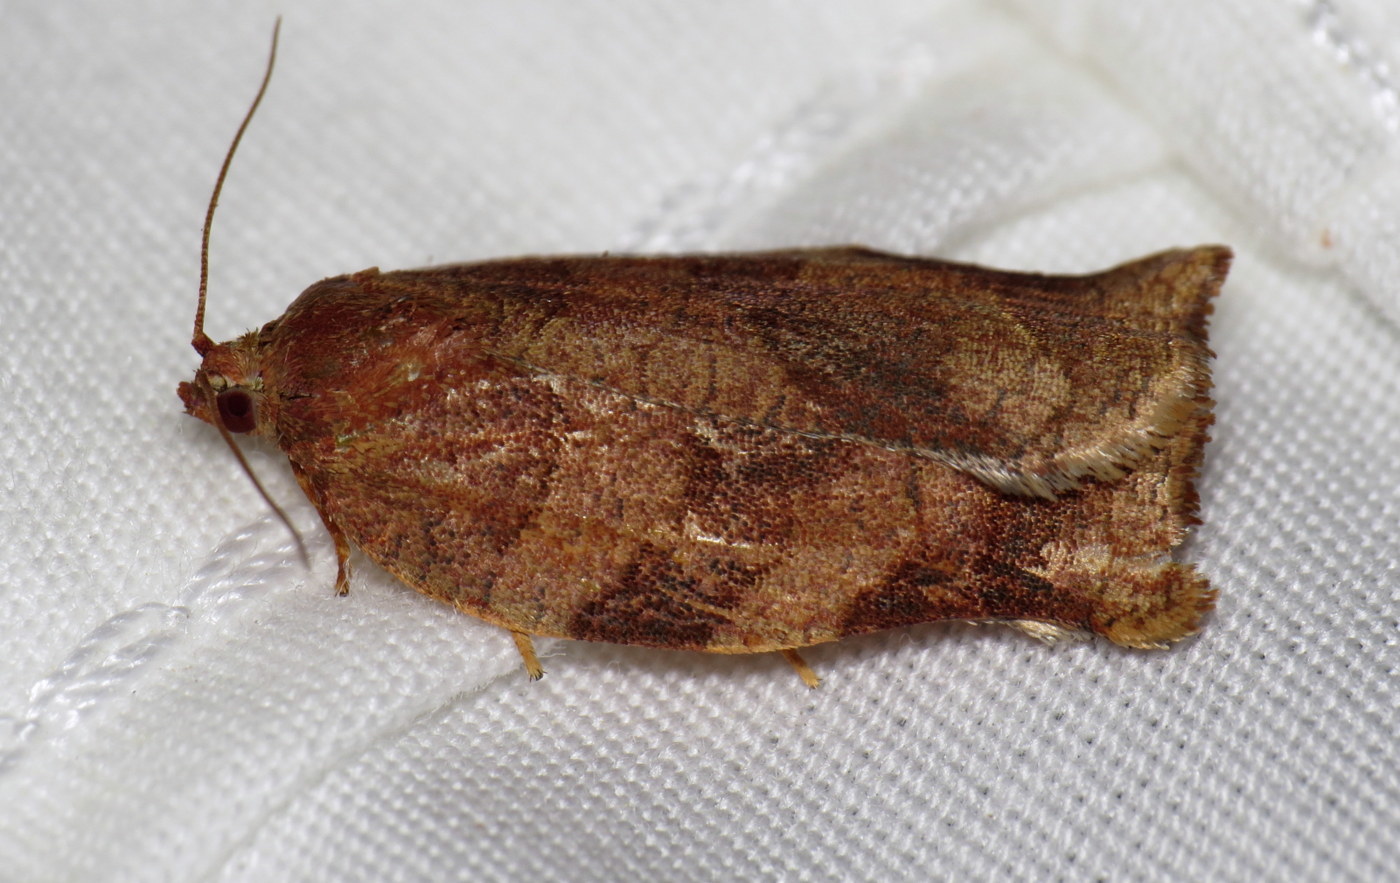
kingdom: Animalia
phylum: Arthropoda
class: Insecta
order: Lepidoptera
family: Tortricidae
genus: Choristoneura
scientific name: Choristoneura rosaceana
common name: Oblique-banded leafroller moth
